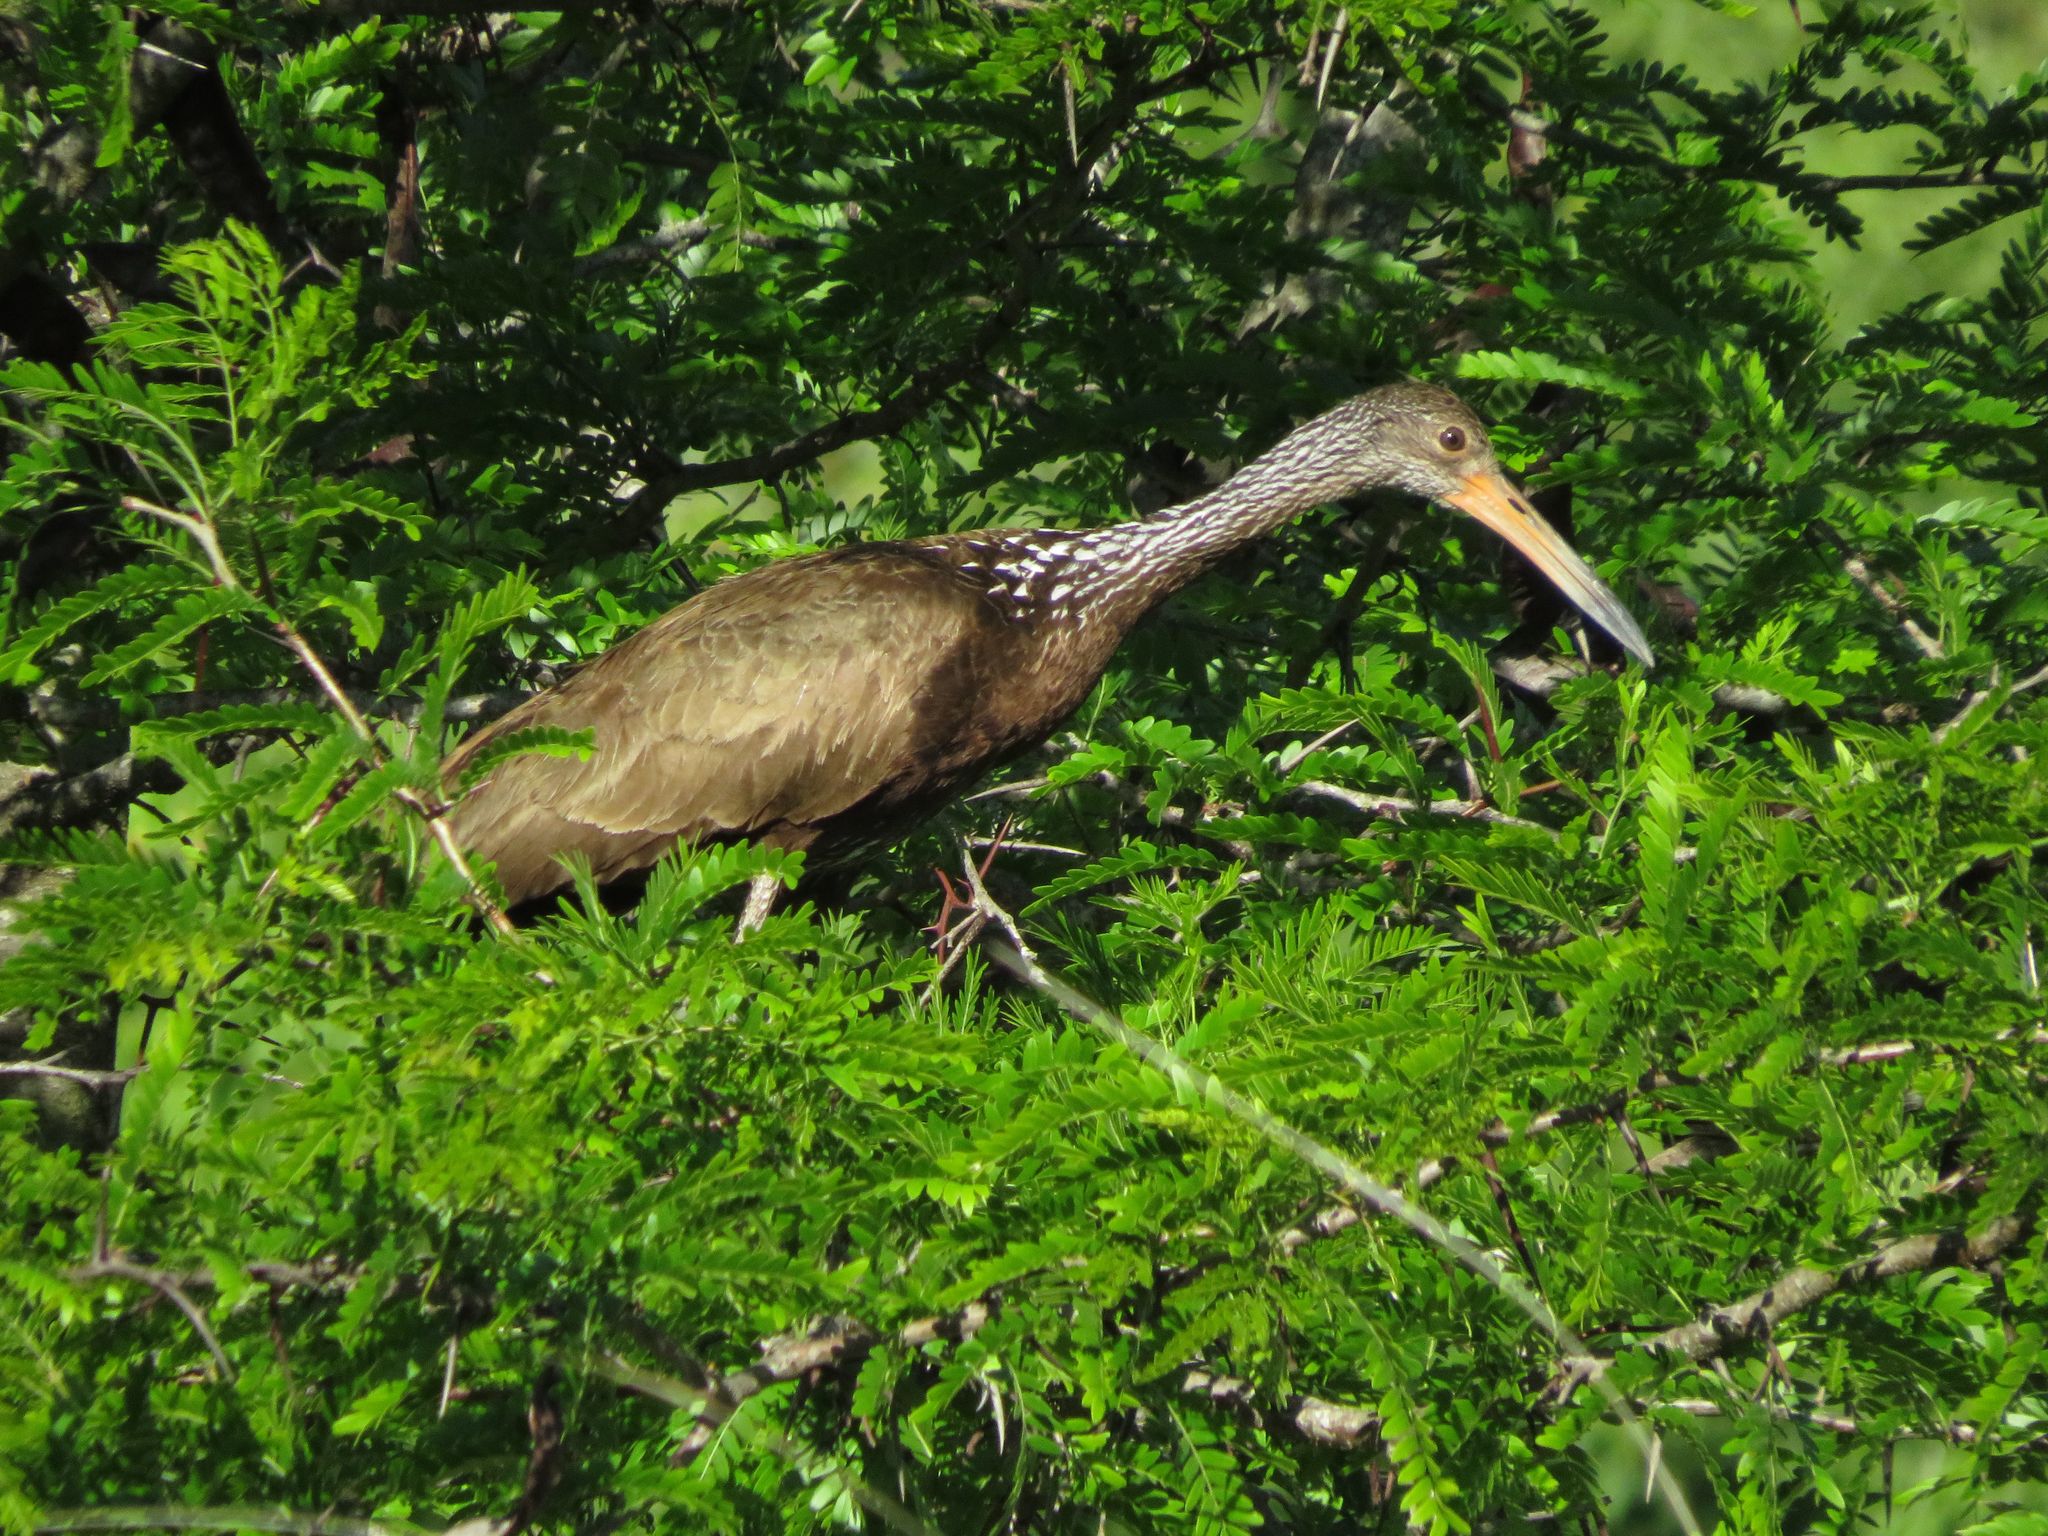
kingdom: Animalia
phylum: Chordata
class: Aves
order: Gruiformes
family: Aramidae
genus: Aramus
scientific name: Aramus guarauna
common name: Limpkin
